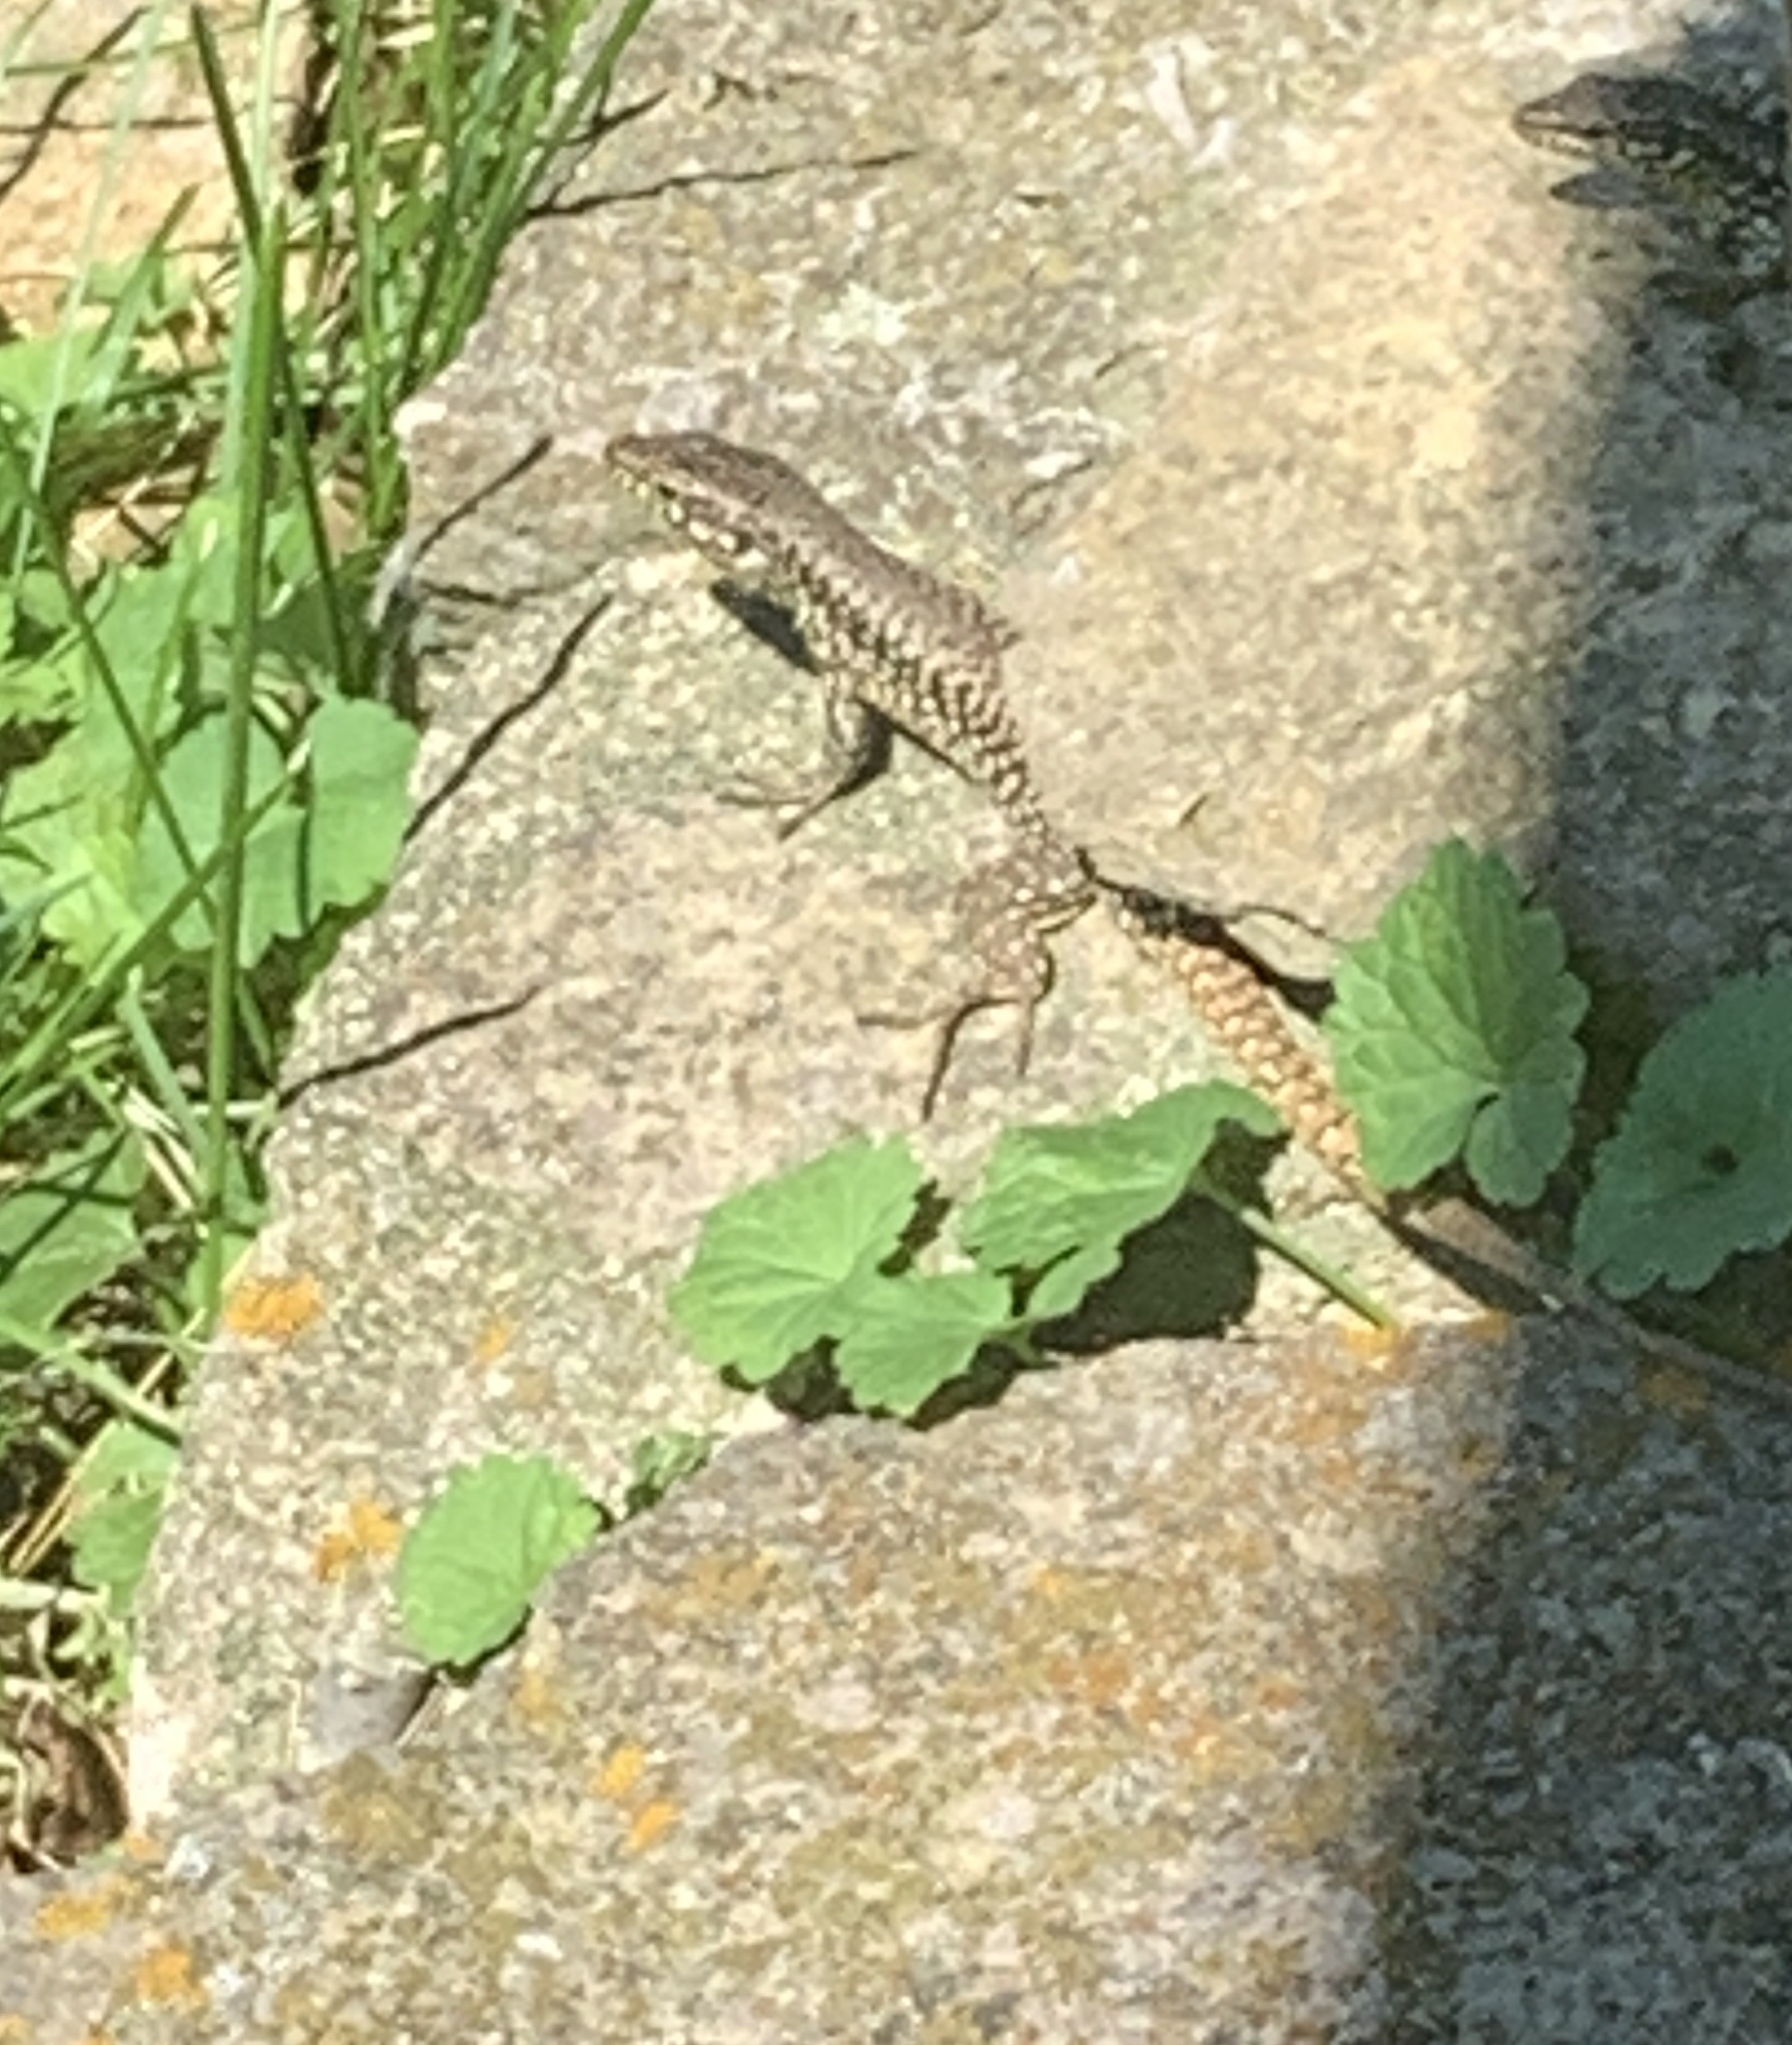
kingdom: Animalia
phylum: Chordata
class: Squamata
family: Lacertidae
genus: Podarcis
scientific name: Podarcis muralis
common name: Common wall lizard
